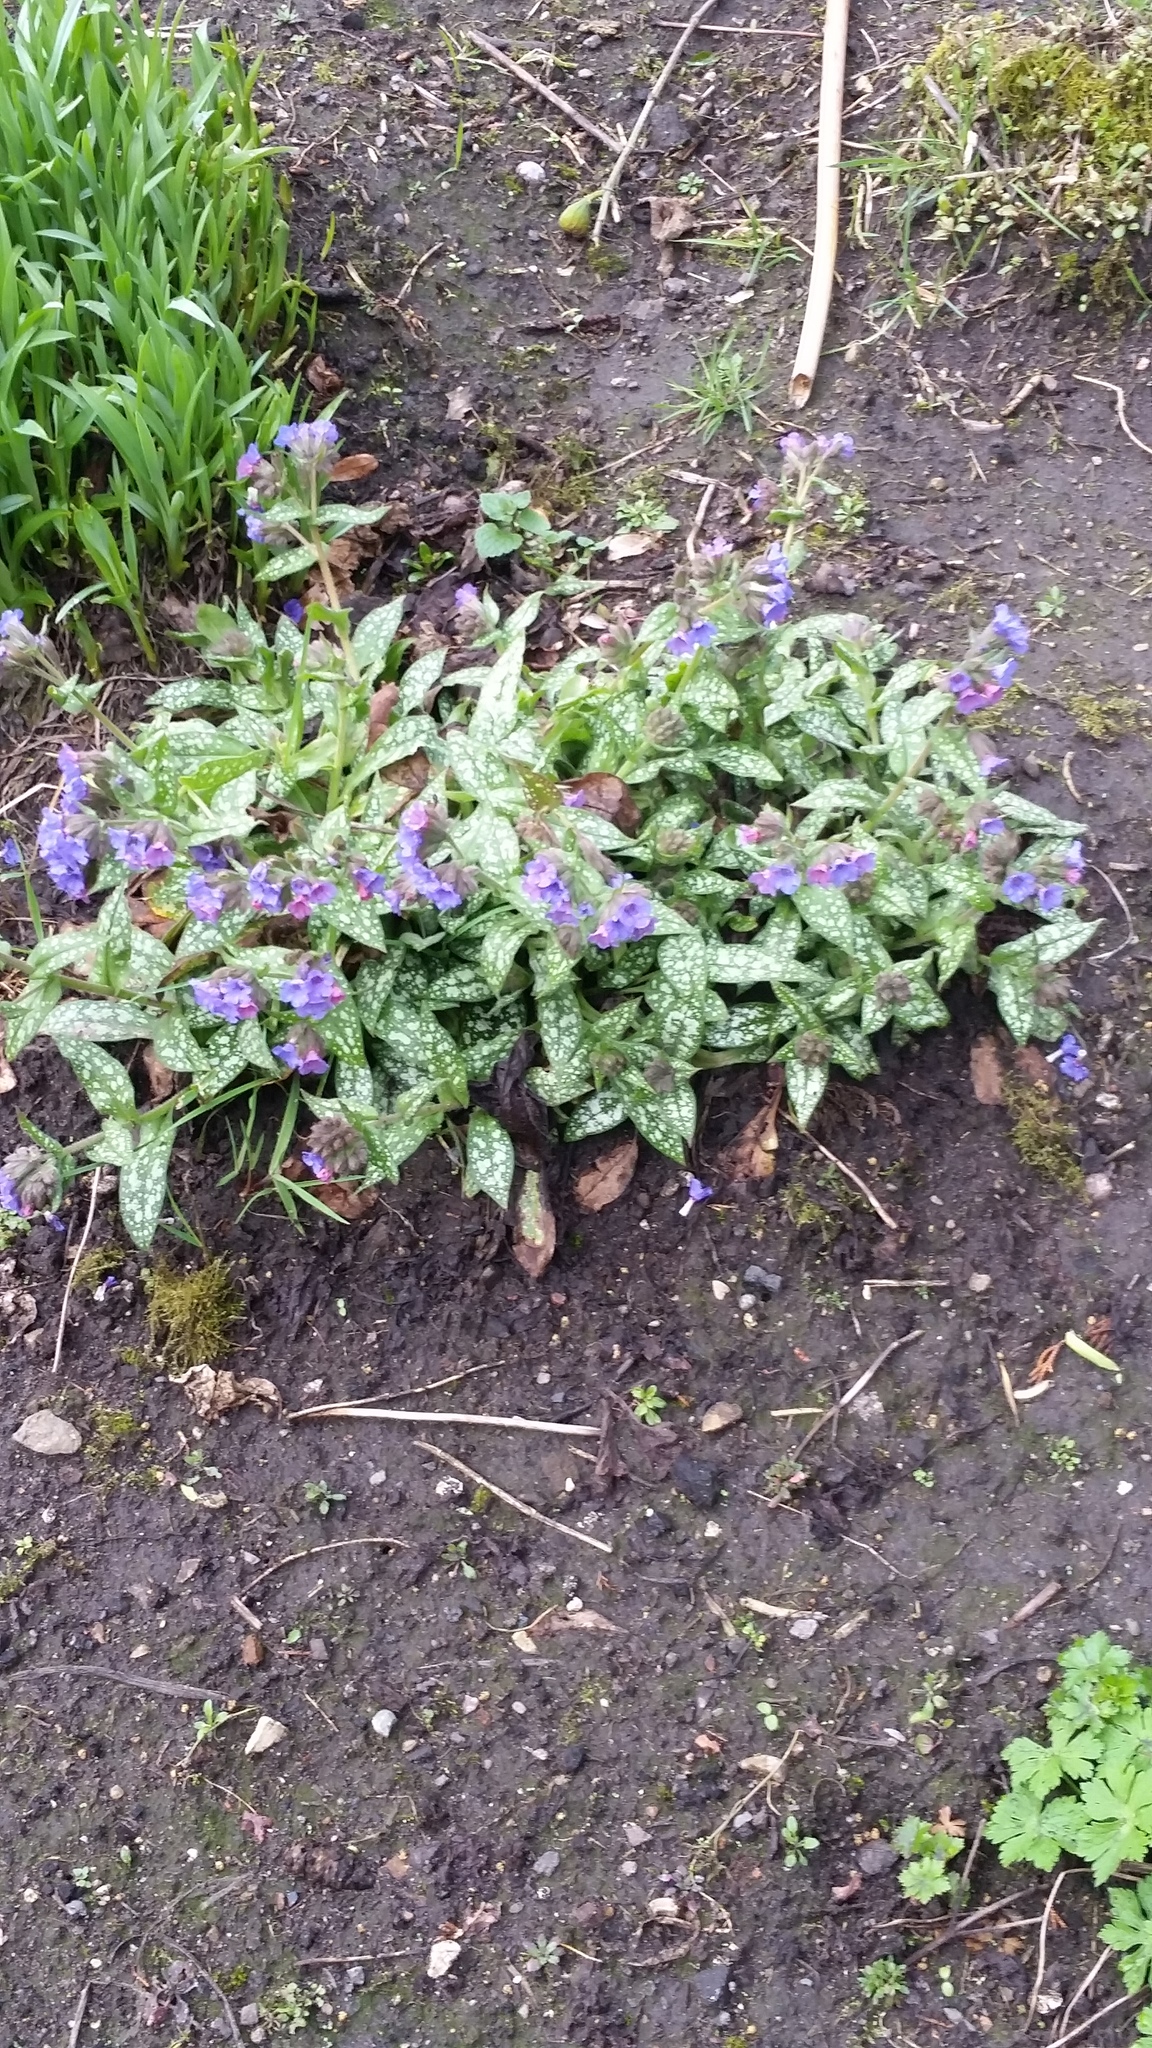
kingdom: Plantae
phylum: Tracheophyta
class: Magnoliopsida
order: Boraginales
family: Boraginaceae
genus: Pulmonaria
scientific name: Pulmonaria officinalis
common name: Lungwort
